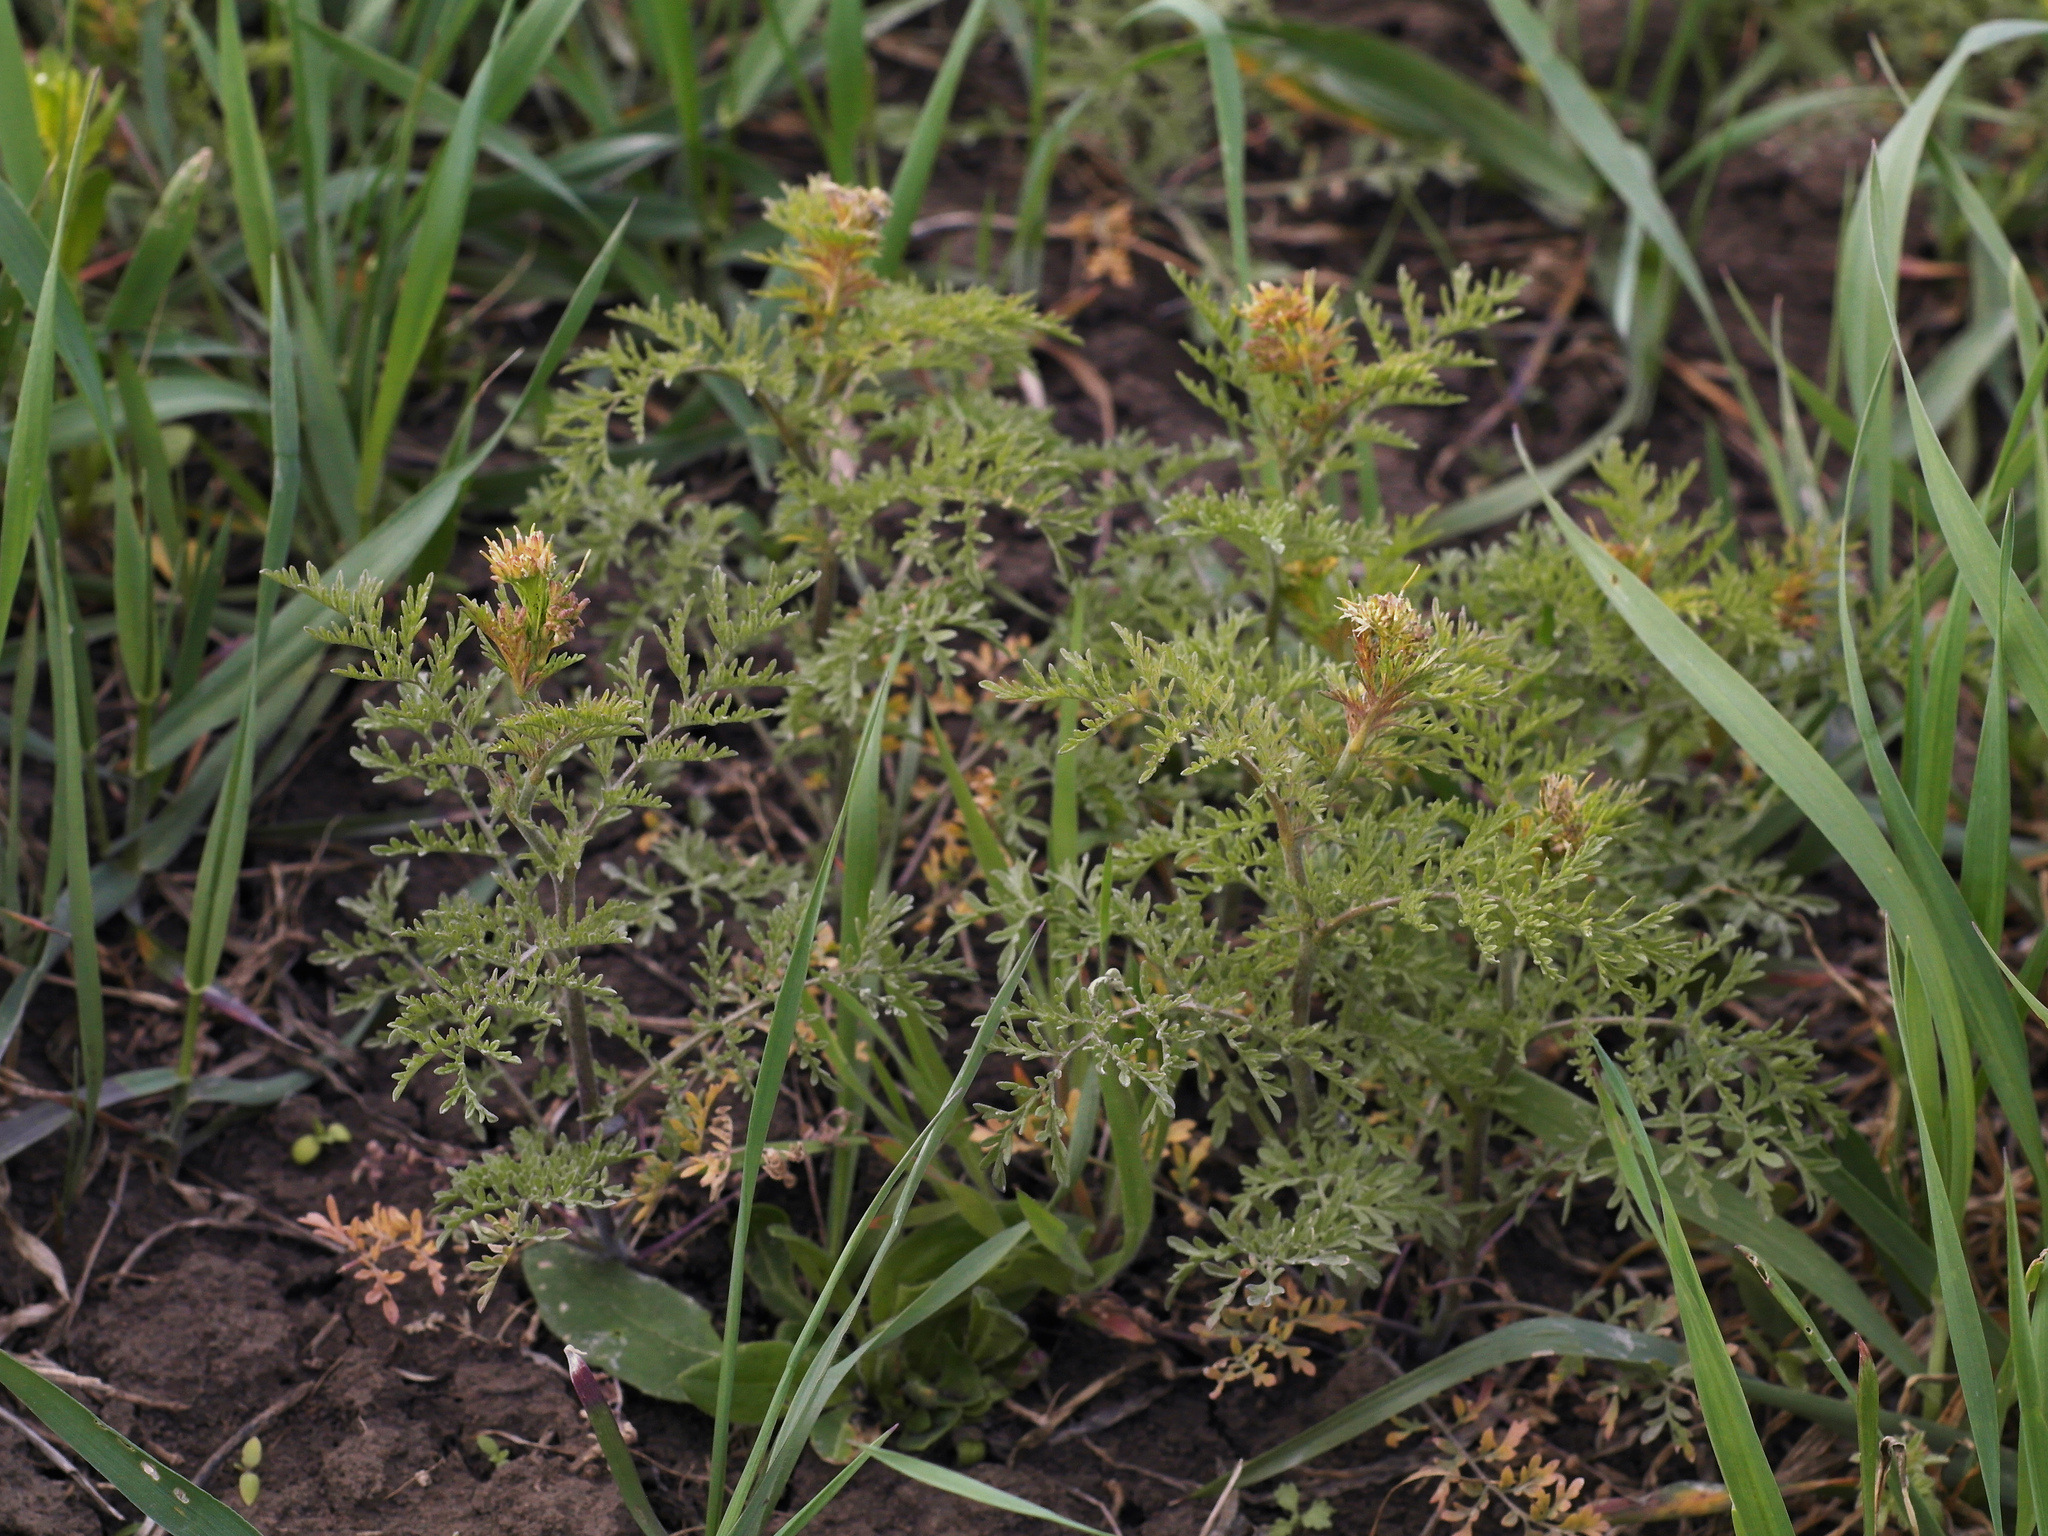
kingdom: Plantae
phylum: Tracheophyta
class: Magnoliopsida
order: Brassicales
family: Brassicaceae
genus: Descurainia
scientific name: Descurainia sophia
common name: Flixweed
